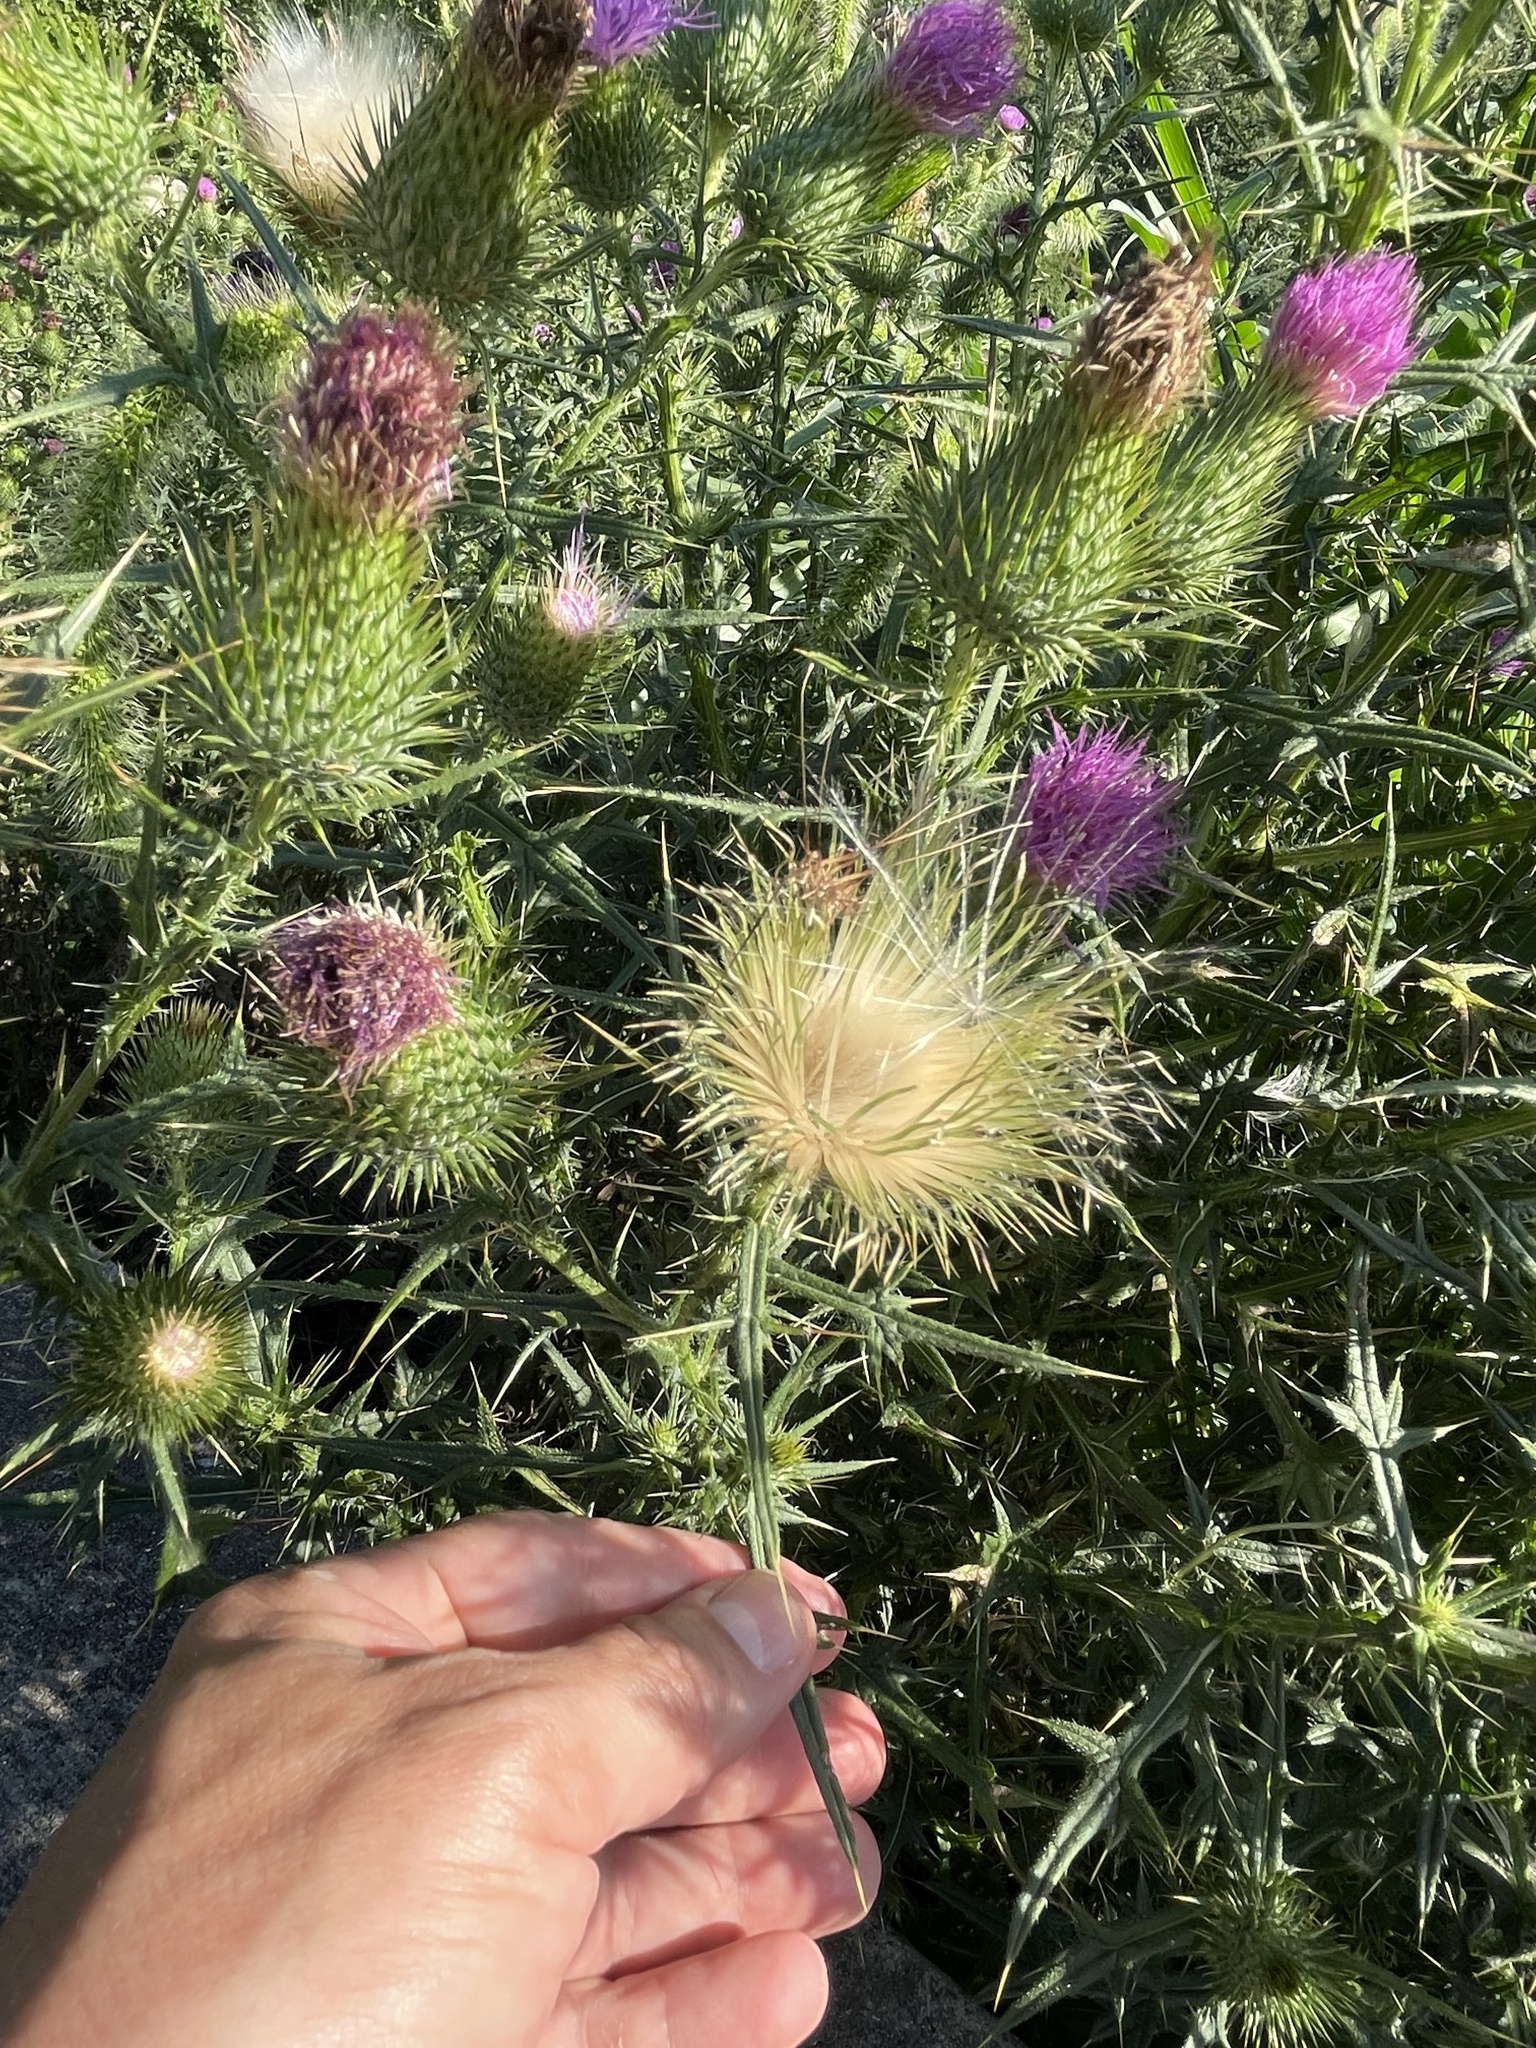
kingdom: Plantae
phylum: Tracheophyta
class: Magnoliopsida
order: Asterales
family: Asteraceae
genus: Cirsium
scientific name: Cirsium vulgare
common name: Bull thistle
